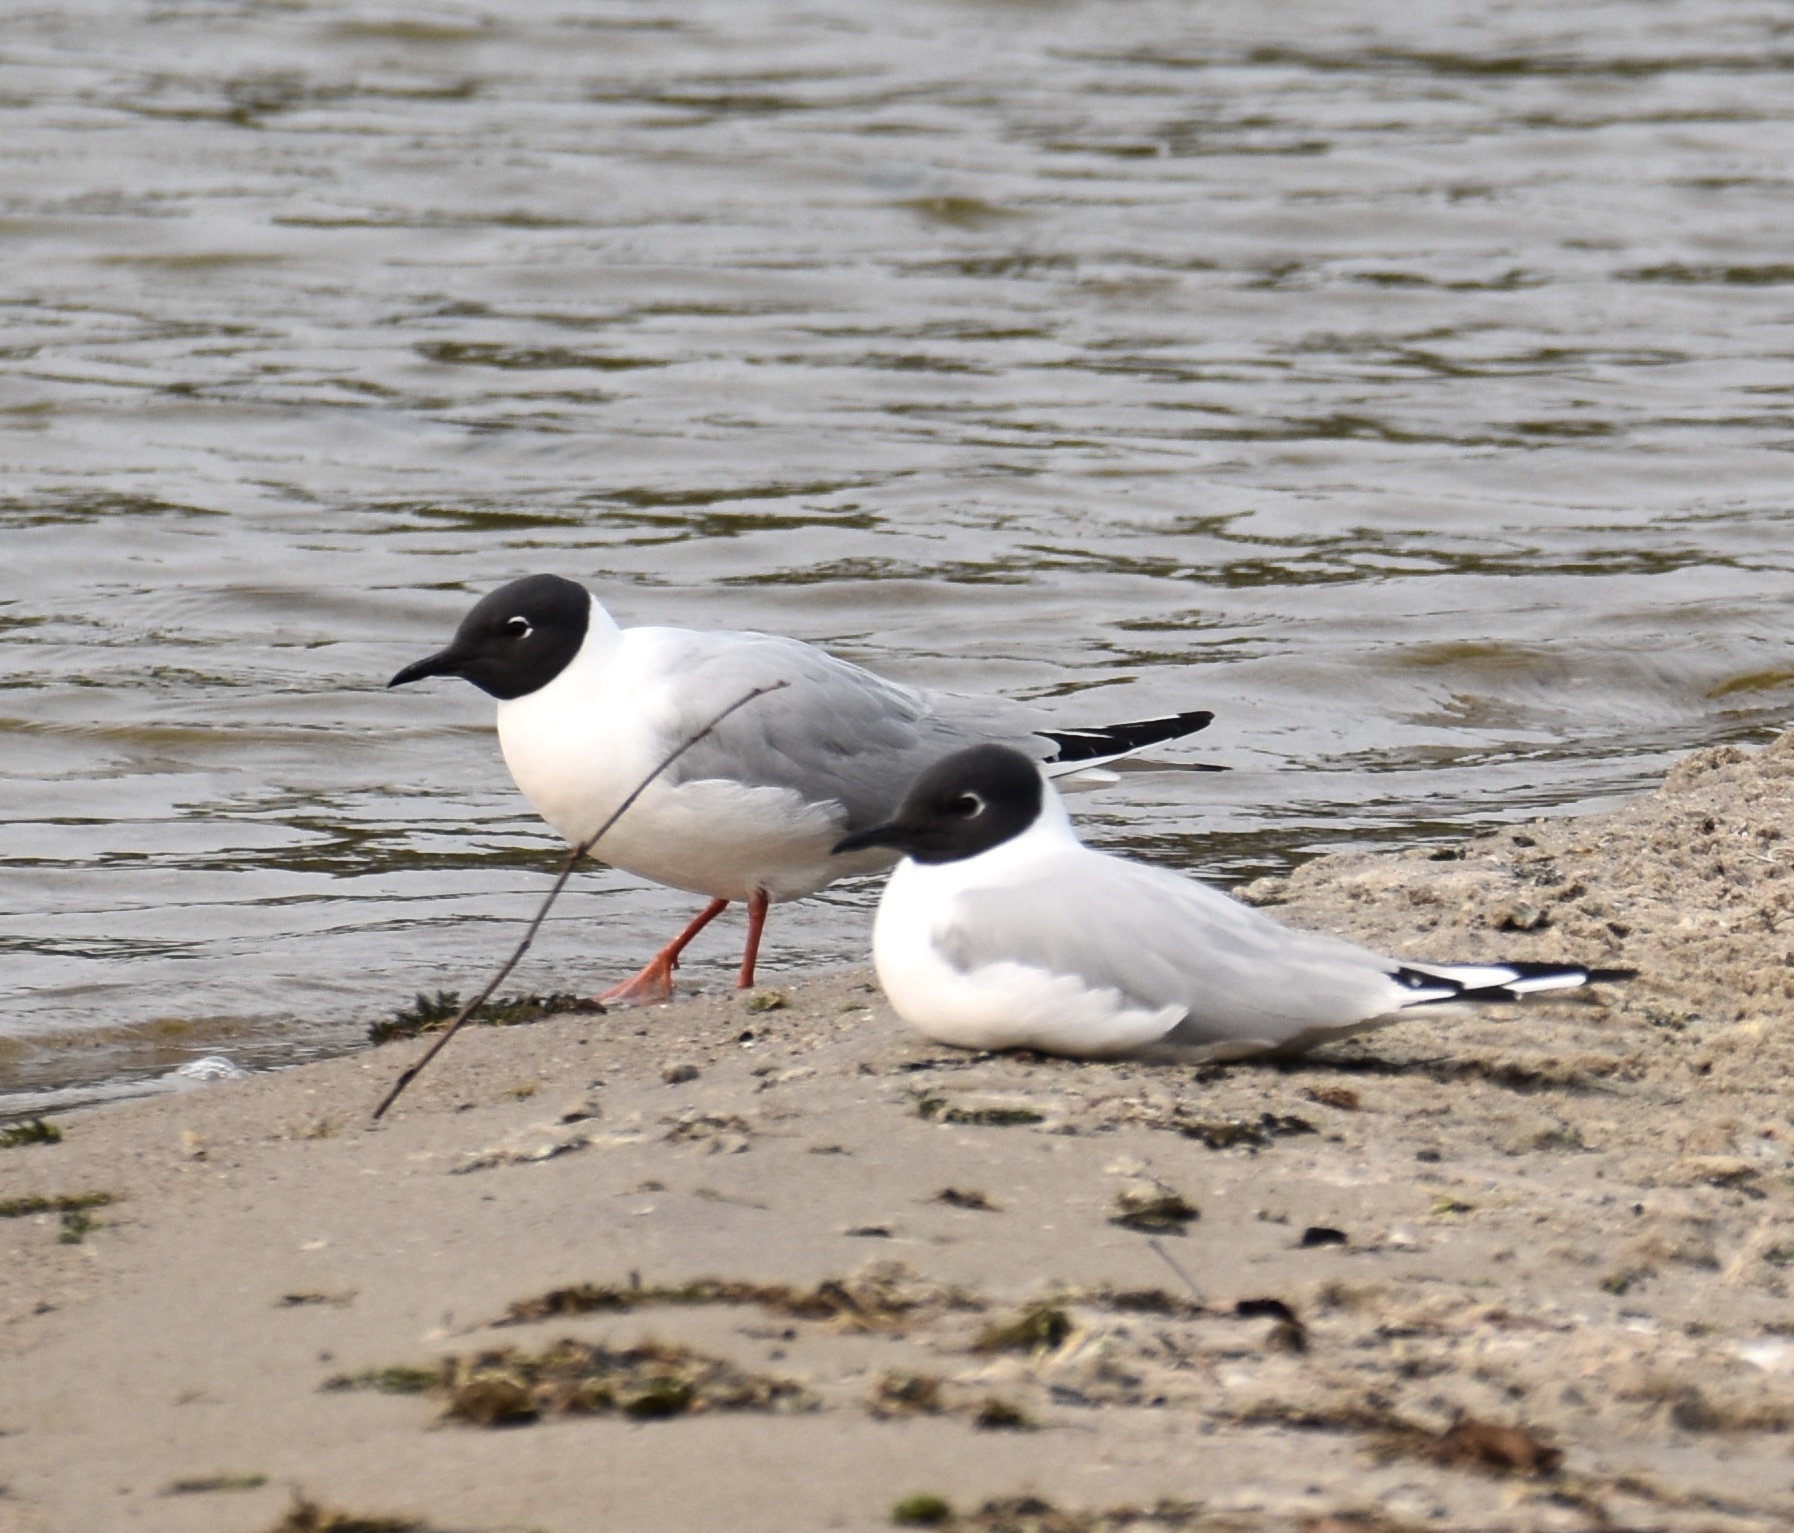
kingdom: Animalia
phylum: Chordata
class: Aves
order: Charadriiformes
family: Laridae
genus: Chroicocephalus
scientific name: Chroicocephalus philadelphia
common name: Bonaparte's gull
